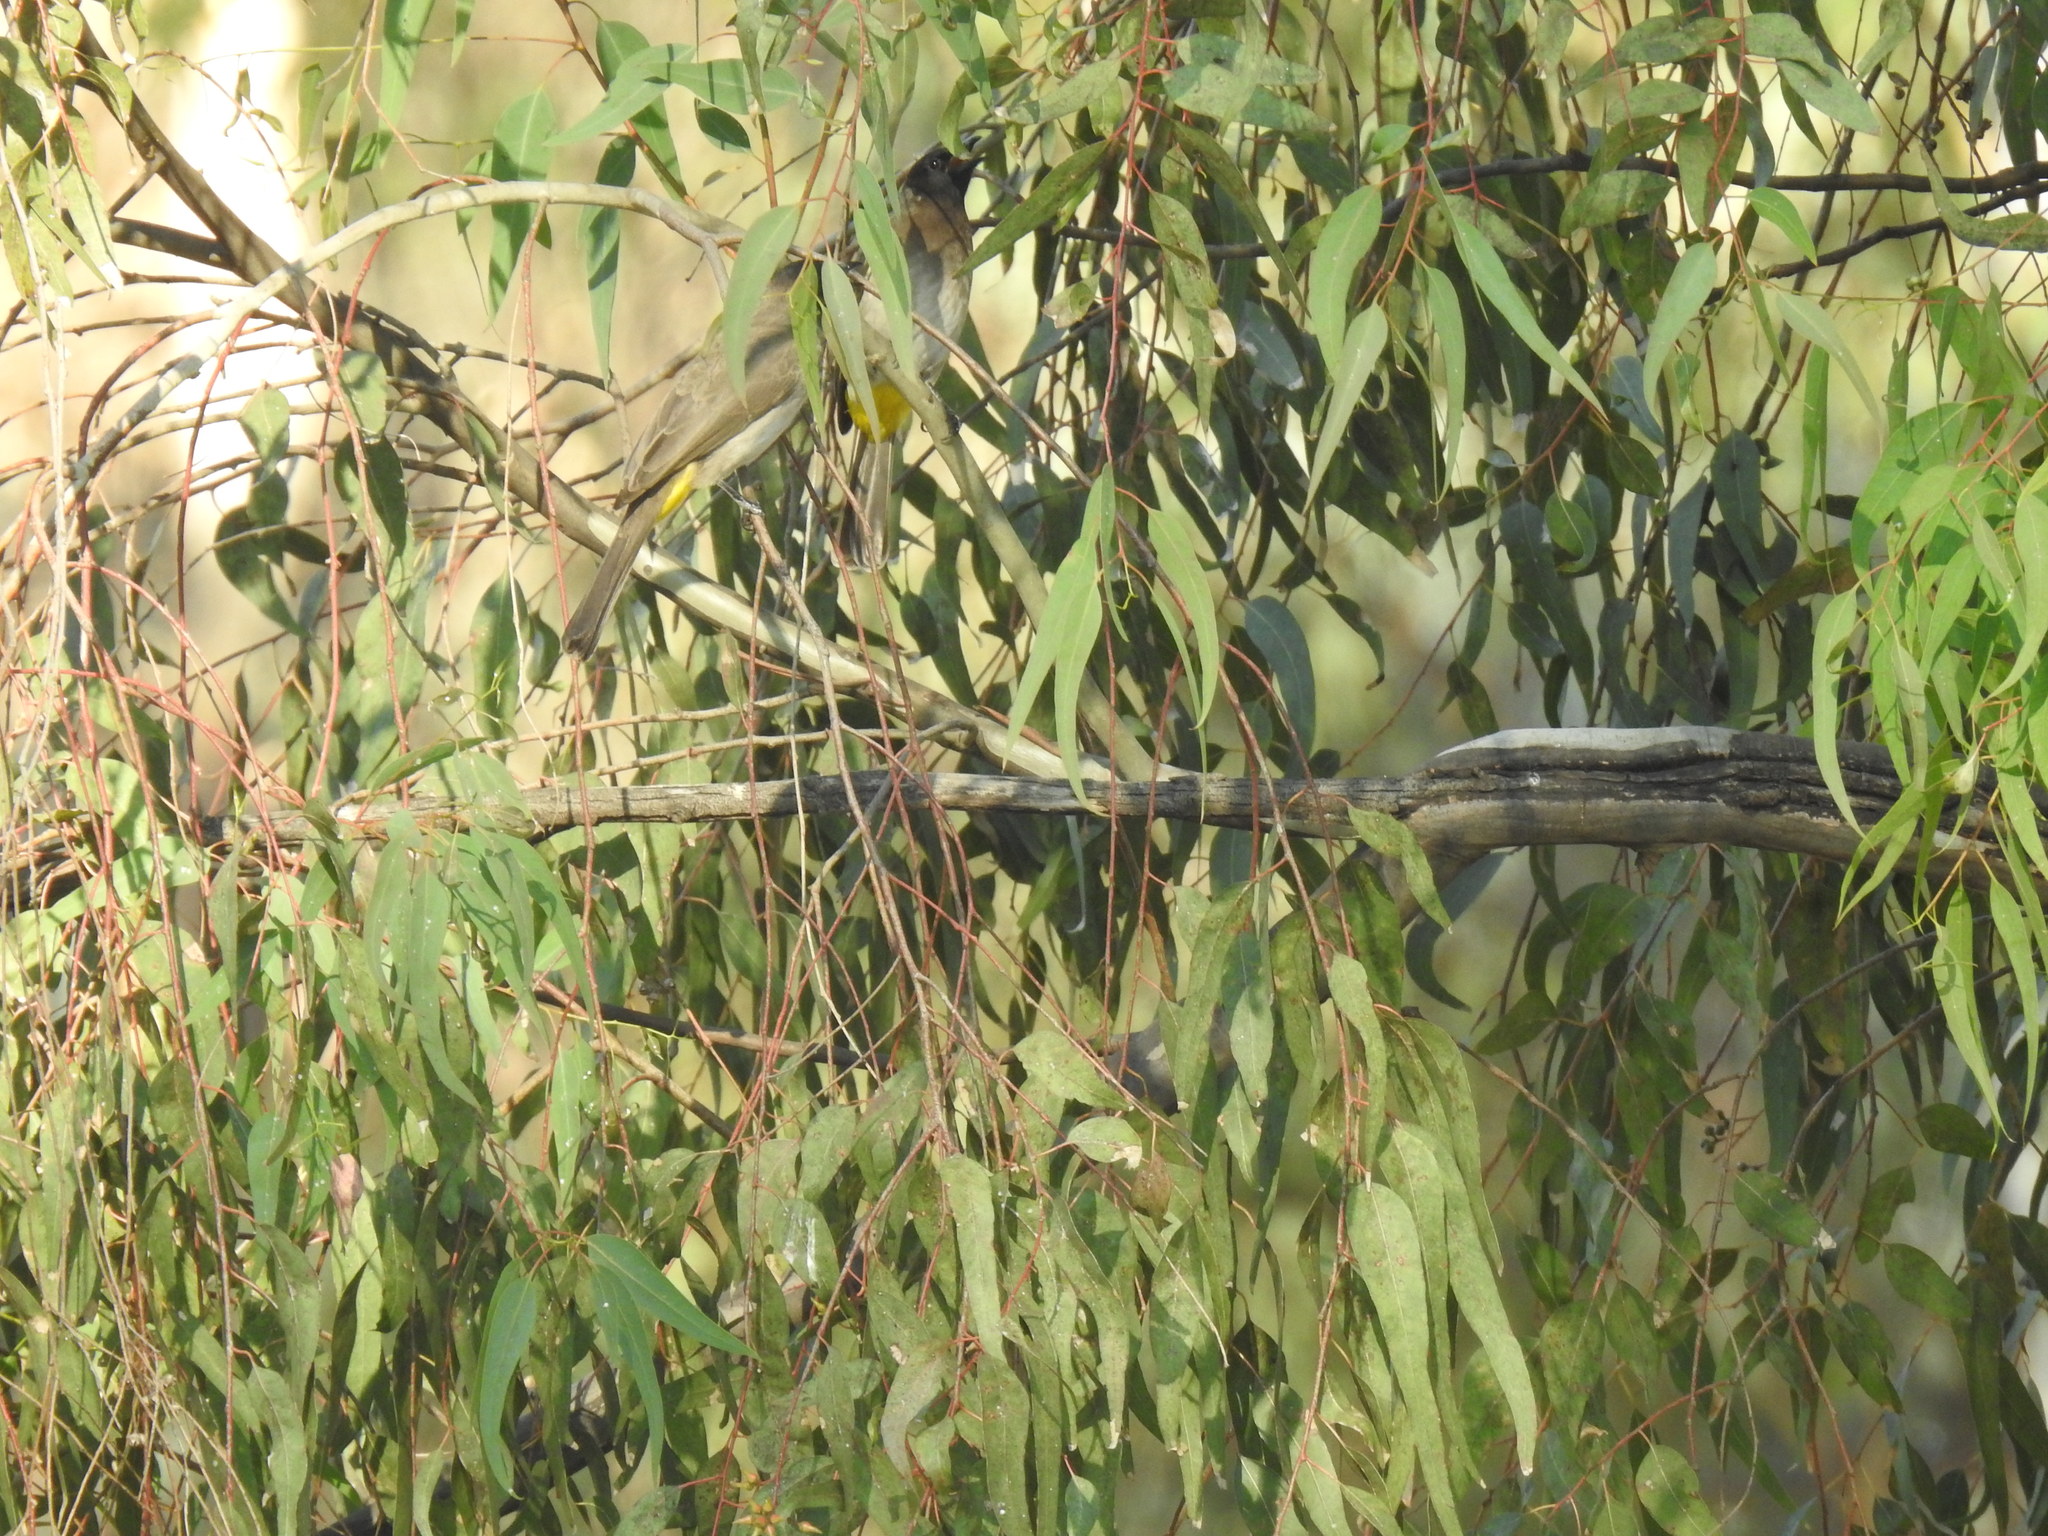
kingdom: Animalia
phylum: Chordata
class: Aves
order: Passeriformes
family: Pycnonotidae
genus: Pycnonotus
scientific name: Pycnonotus barbatus
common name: Common bulbul
